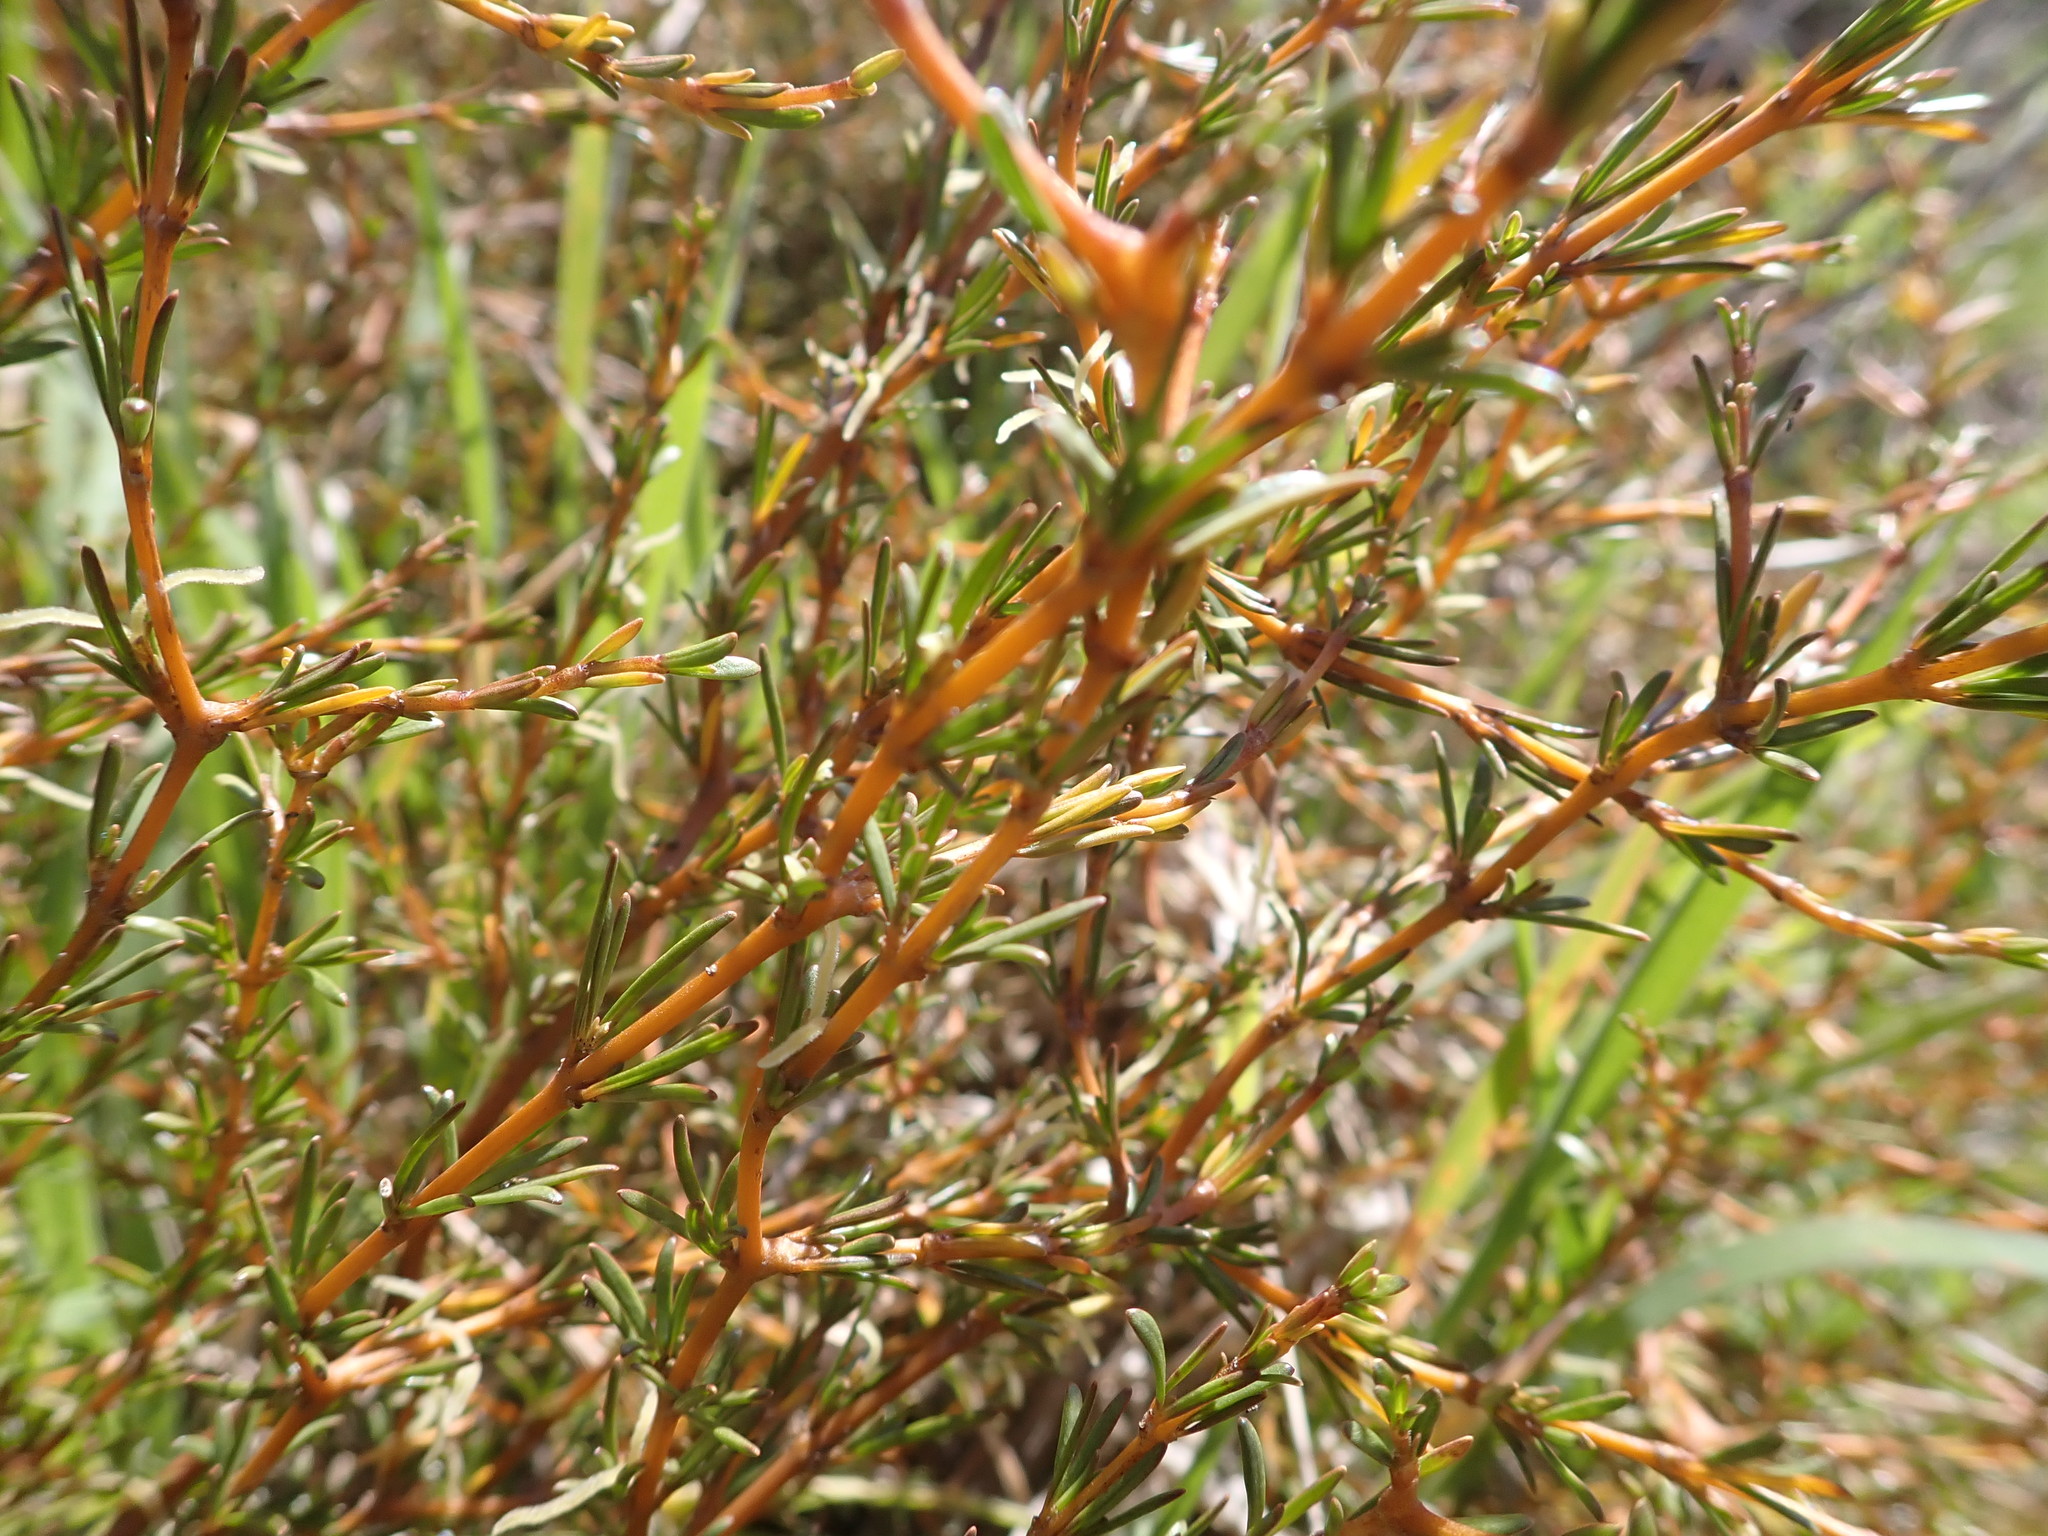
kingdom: Plantae
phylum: Tracheophyta
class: Magnoliopsida
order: Gentianales
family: Rubiaceae
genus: Coprosma
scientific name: Coprosma acerosa
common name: Sand coprosma
